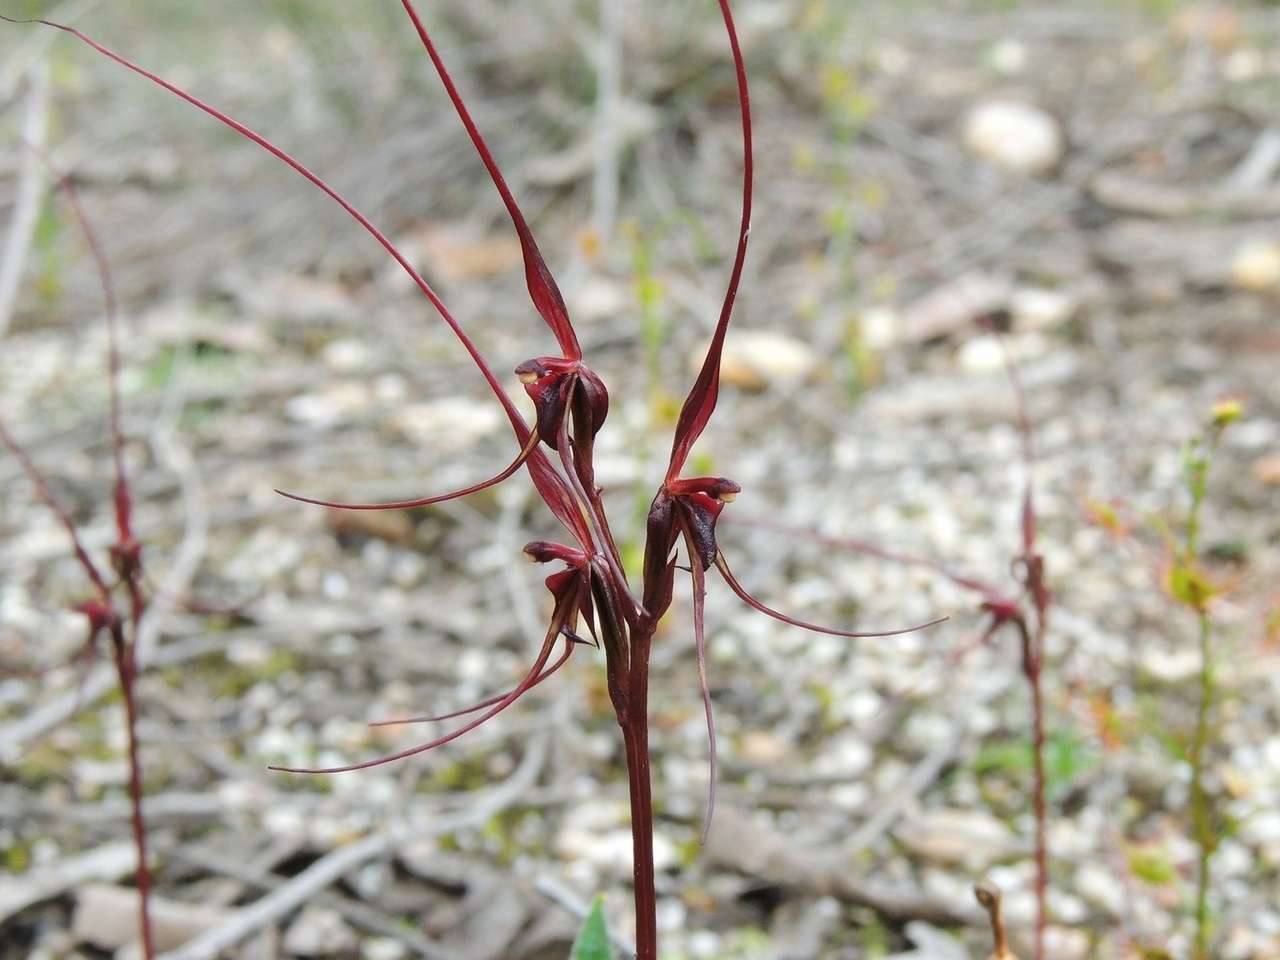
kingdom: Plantae
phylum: Tracheophyta
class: Liliopsida
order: Asparagales
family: Orchidaceae
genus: Acianthus
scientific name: Acianthus caudatus
